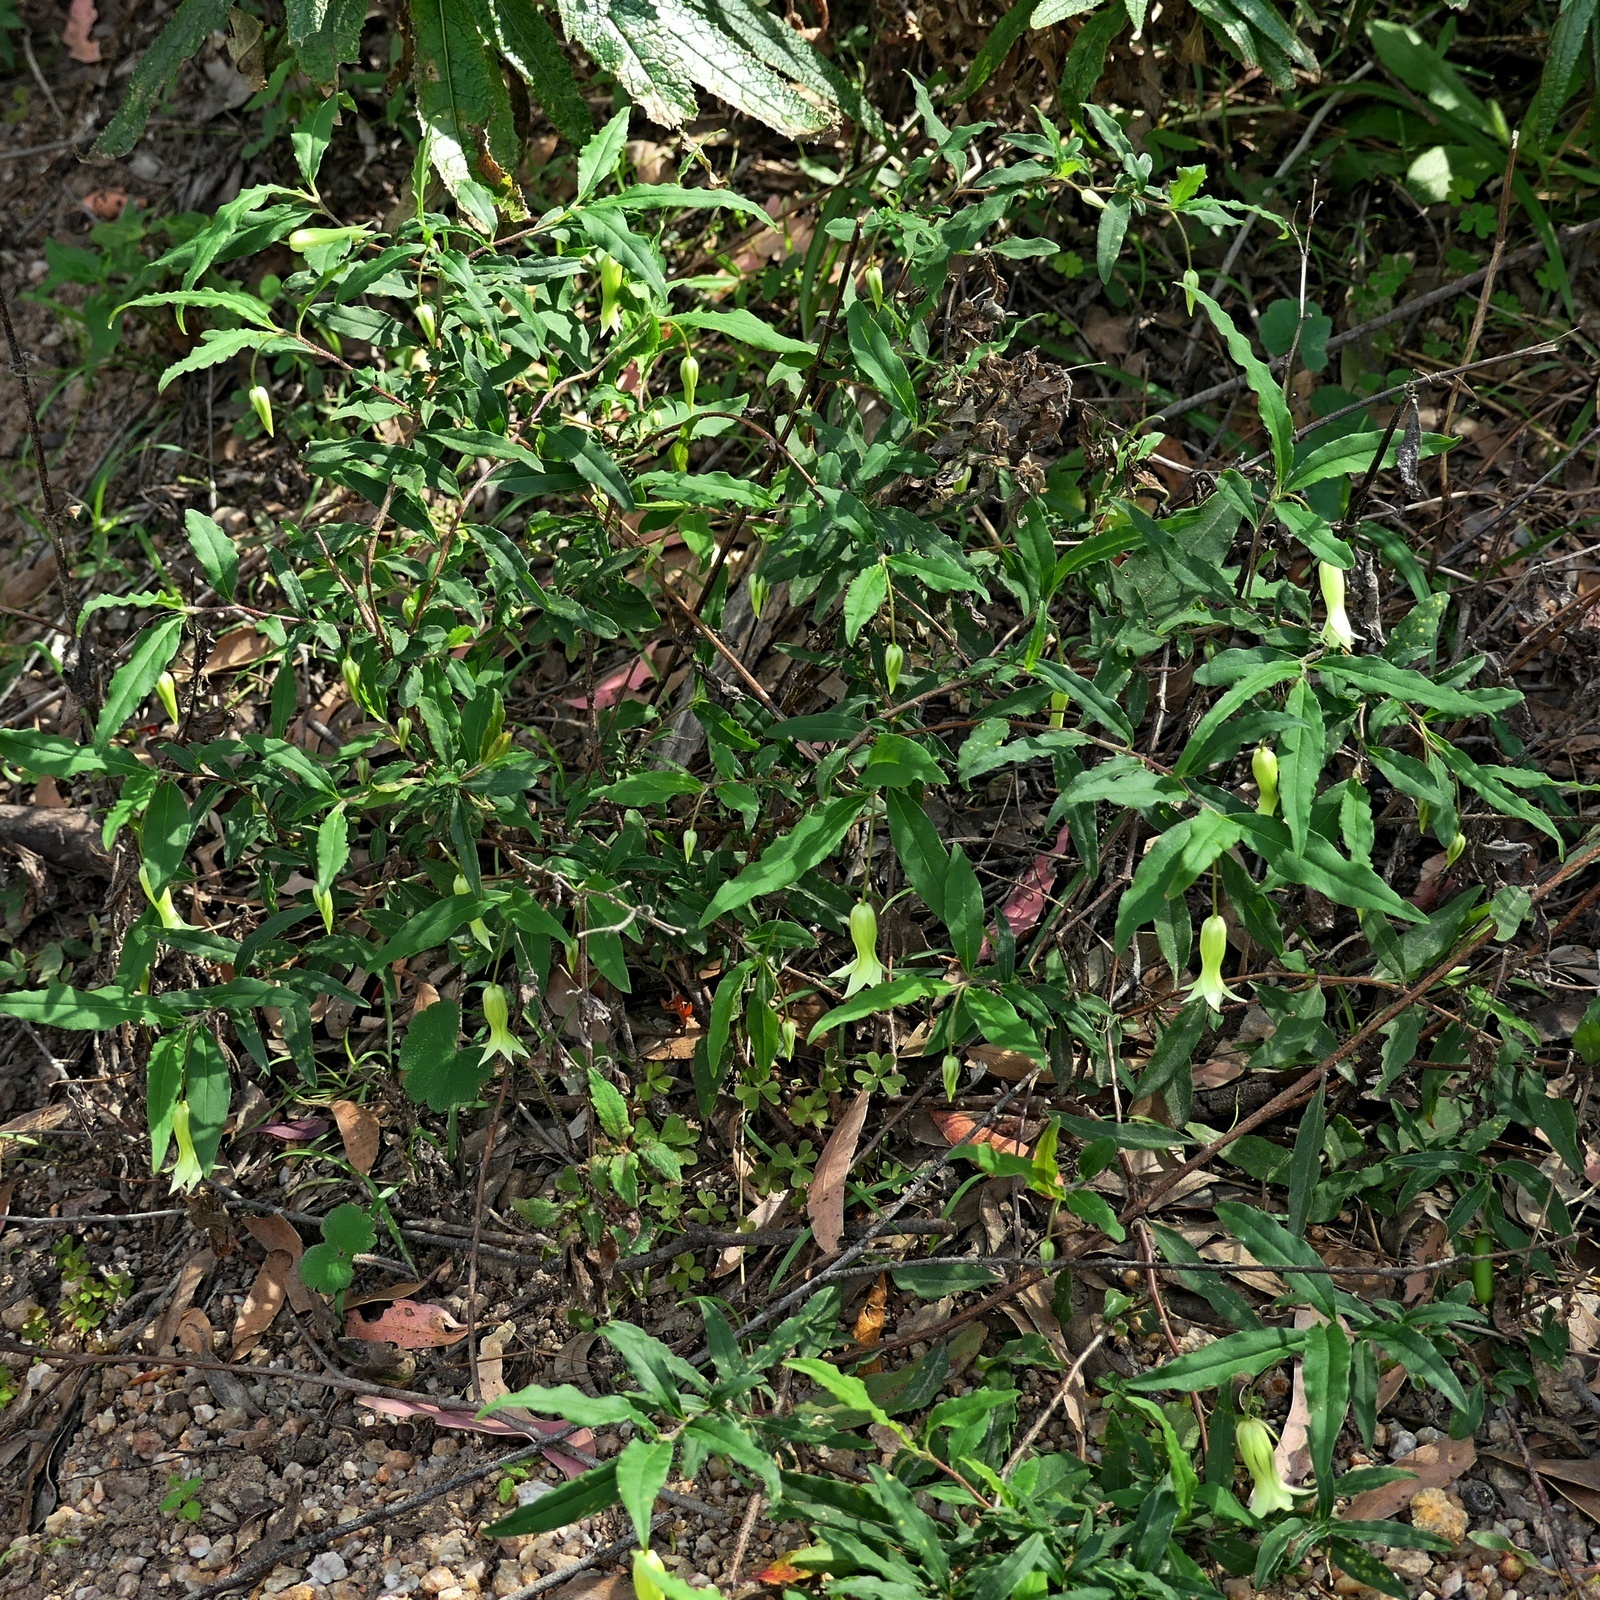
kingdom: Plantae
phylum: Tracheophyta
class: Magnoliopsida
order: Apiales
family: Pittosporaceae
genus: Billardiera
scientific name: Billardiera mutabilis
